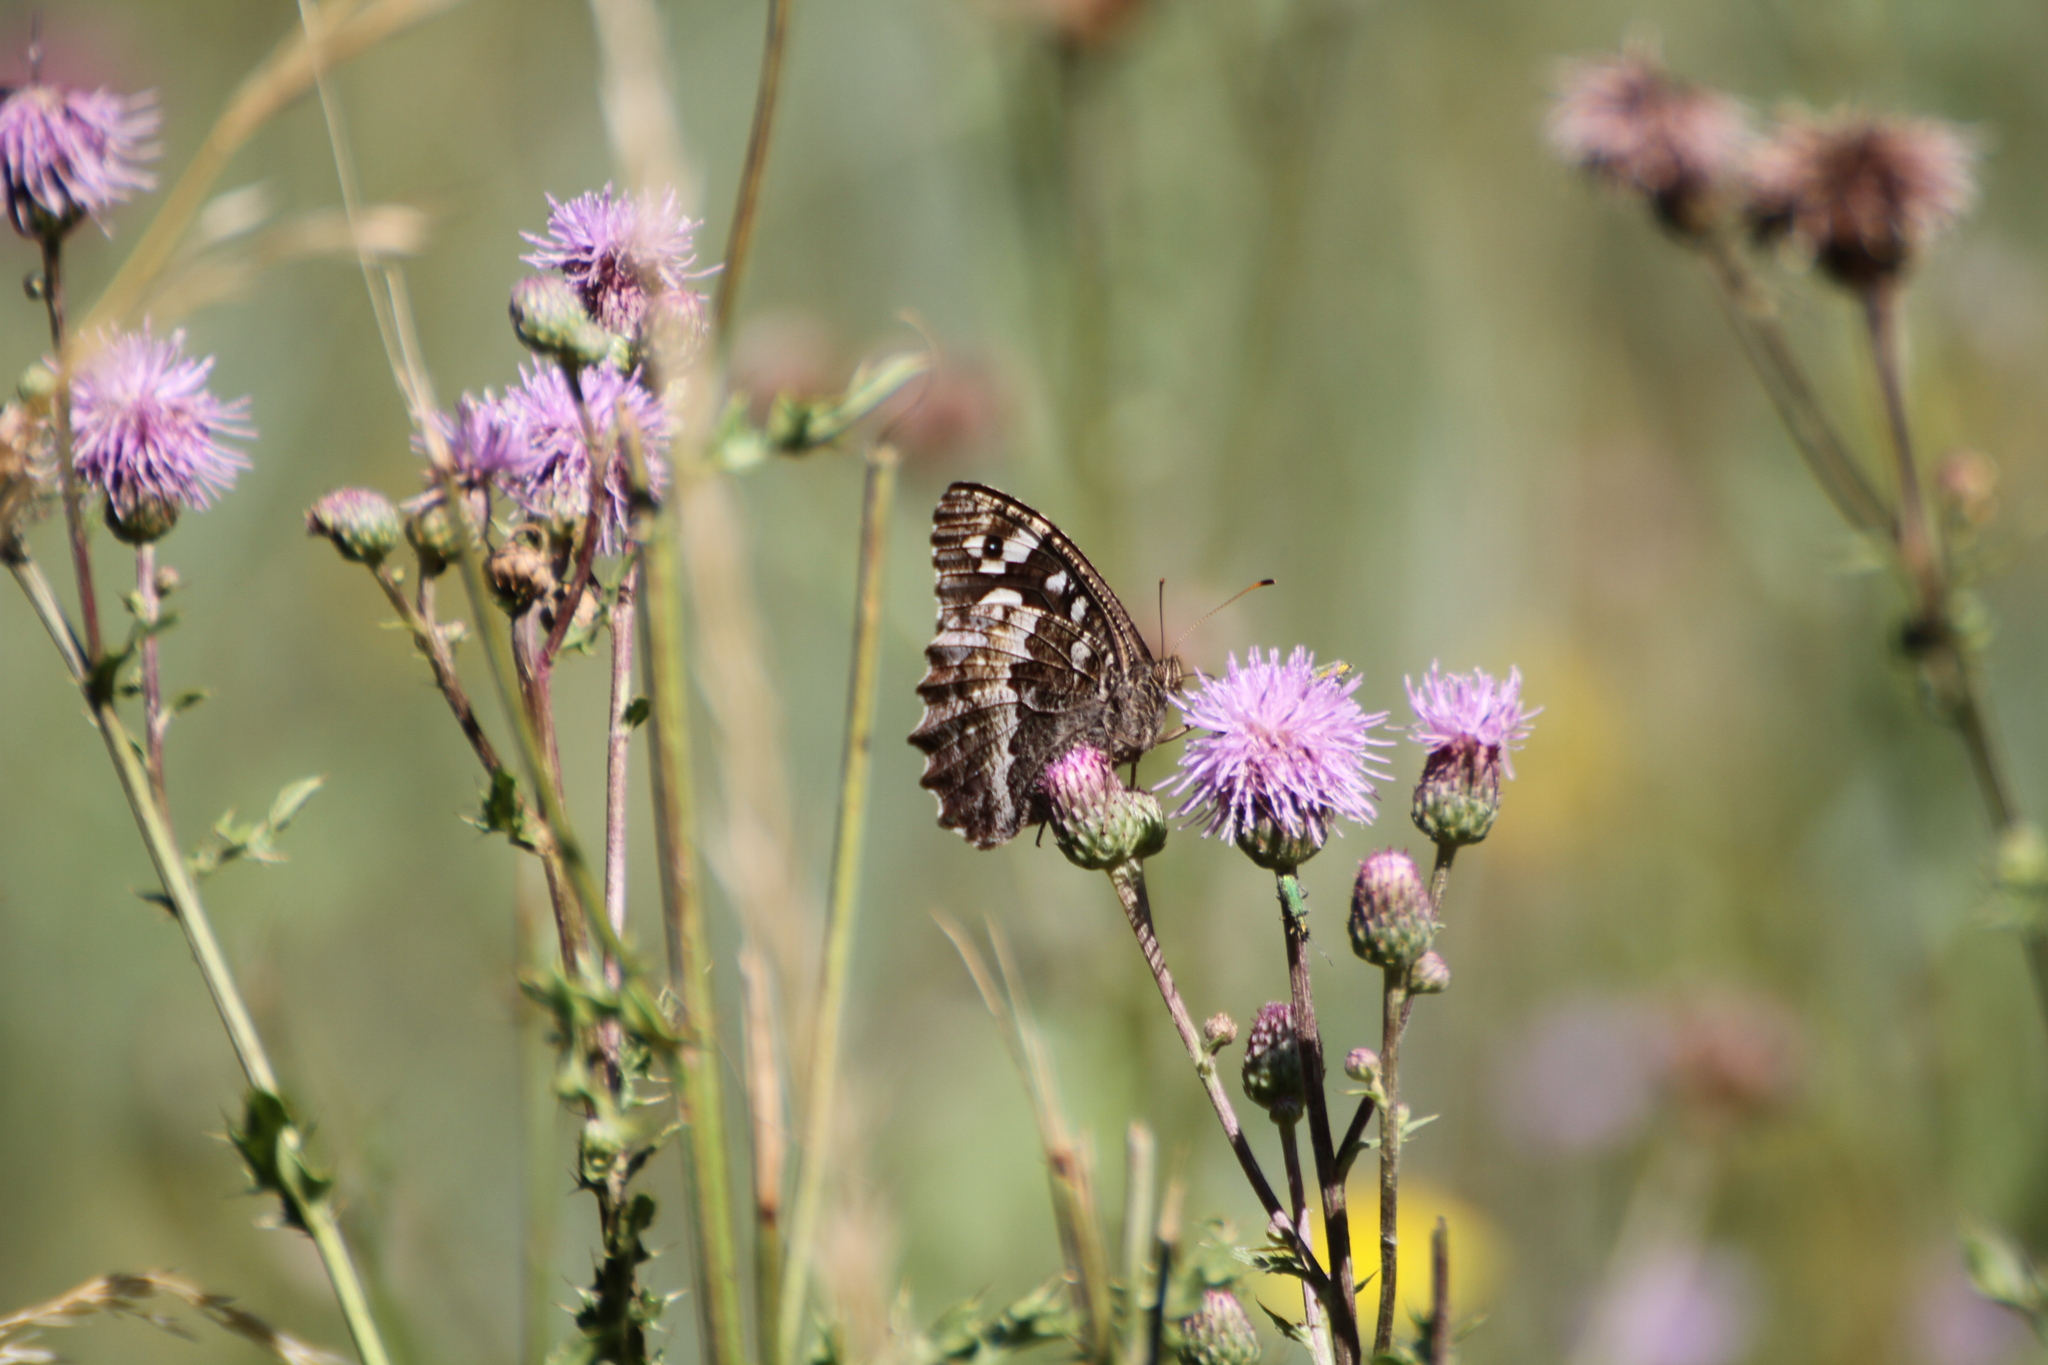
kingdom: Animalia
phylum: Arthropoda
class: Insecta
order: Lepidoptera
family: Lycaenidae
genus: Loweia
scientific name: Loweia tityrus
